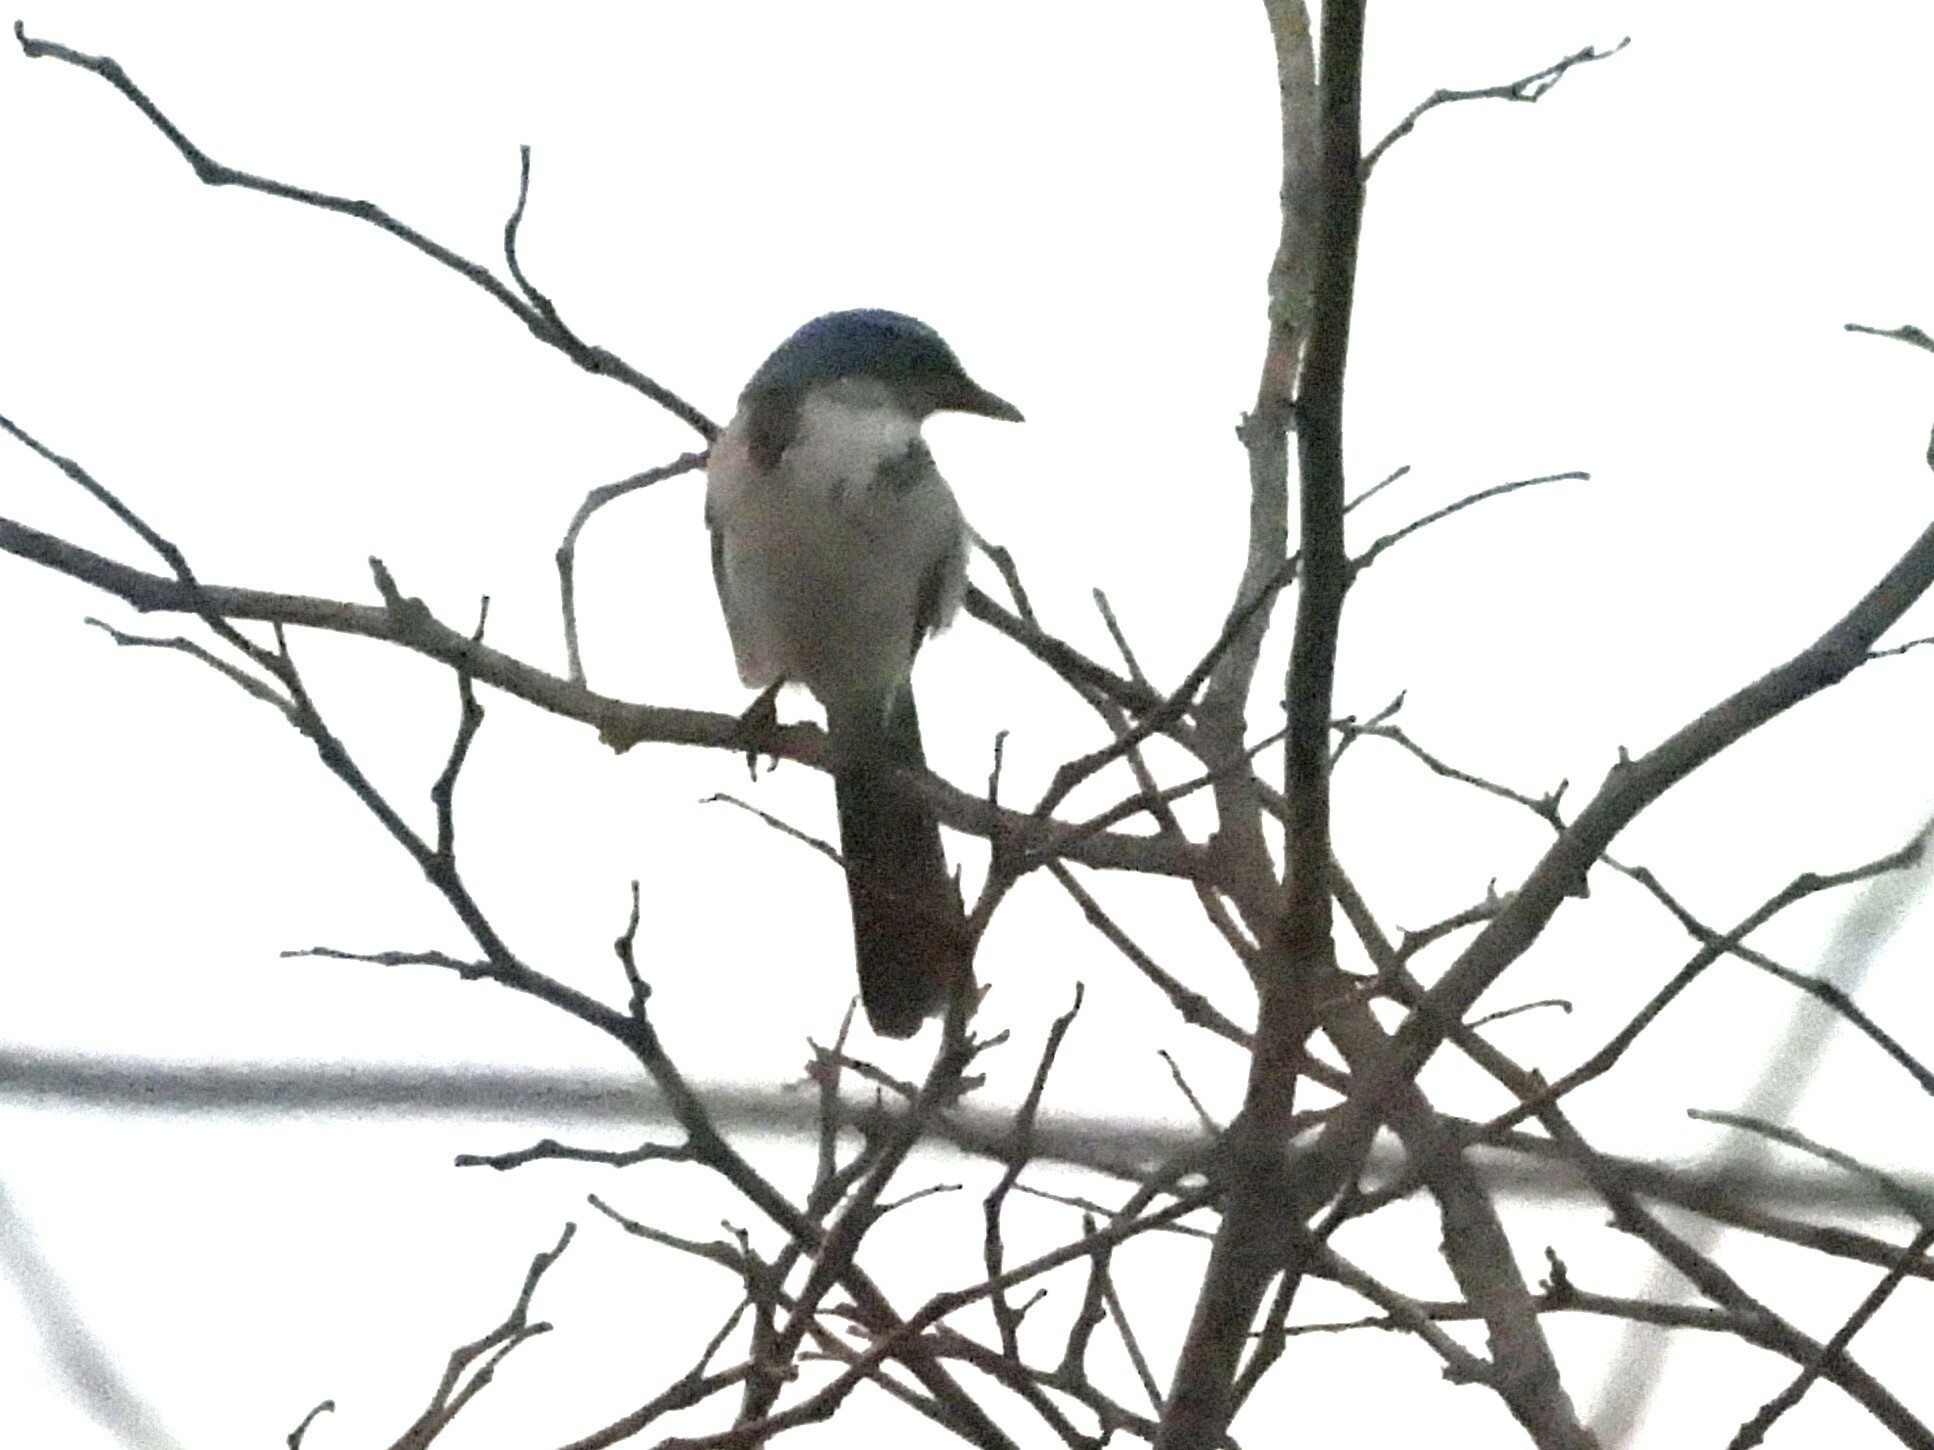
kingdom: Animalia
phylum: Chordata
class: Aves
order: Passeriformes
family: Corvidae
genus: Aphelocoma
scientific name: Aphelocoma californica
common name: California scrub-jay
